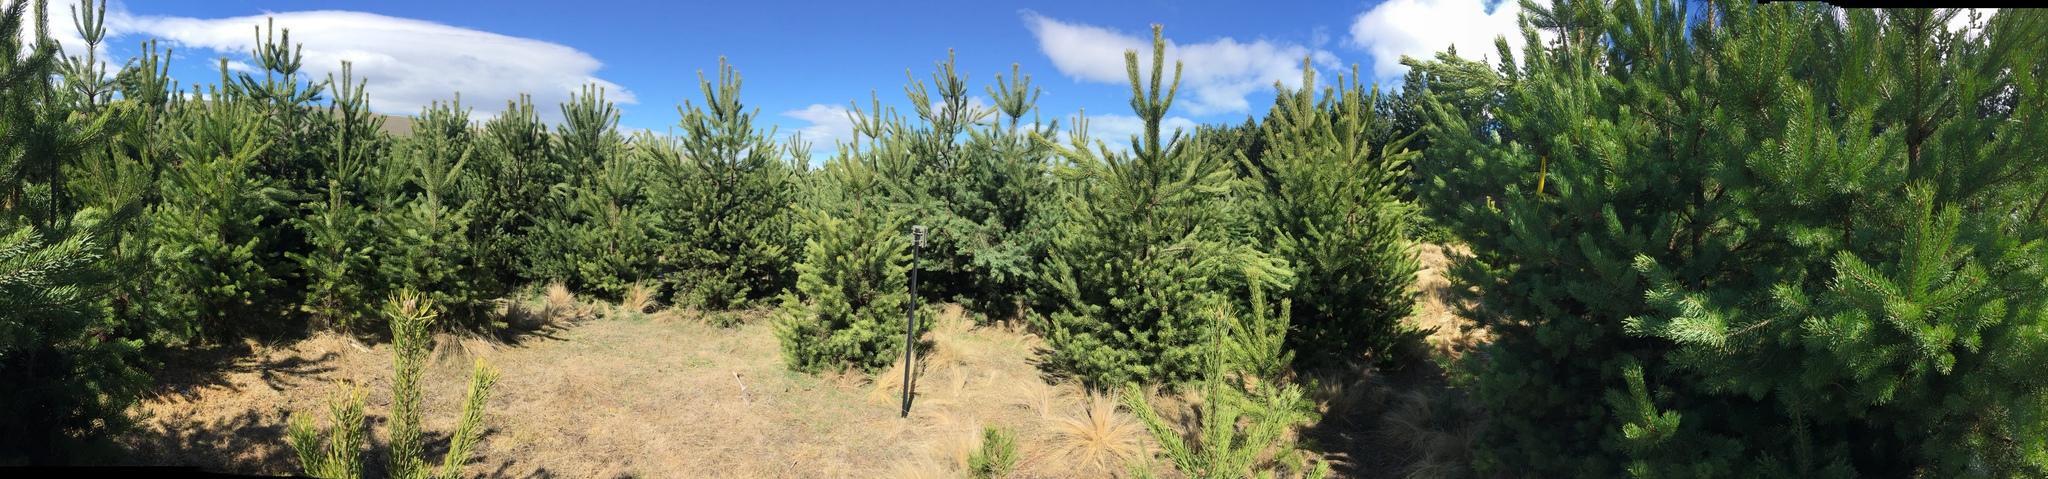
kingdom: Plantae
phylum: Tracheophyta
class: Pinopsida
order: Pinales
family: Pinaceae
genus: Pinus
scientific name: Pinus sylvestris
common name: Scots pine
